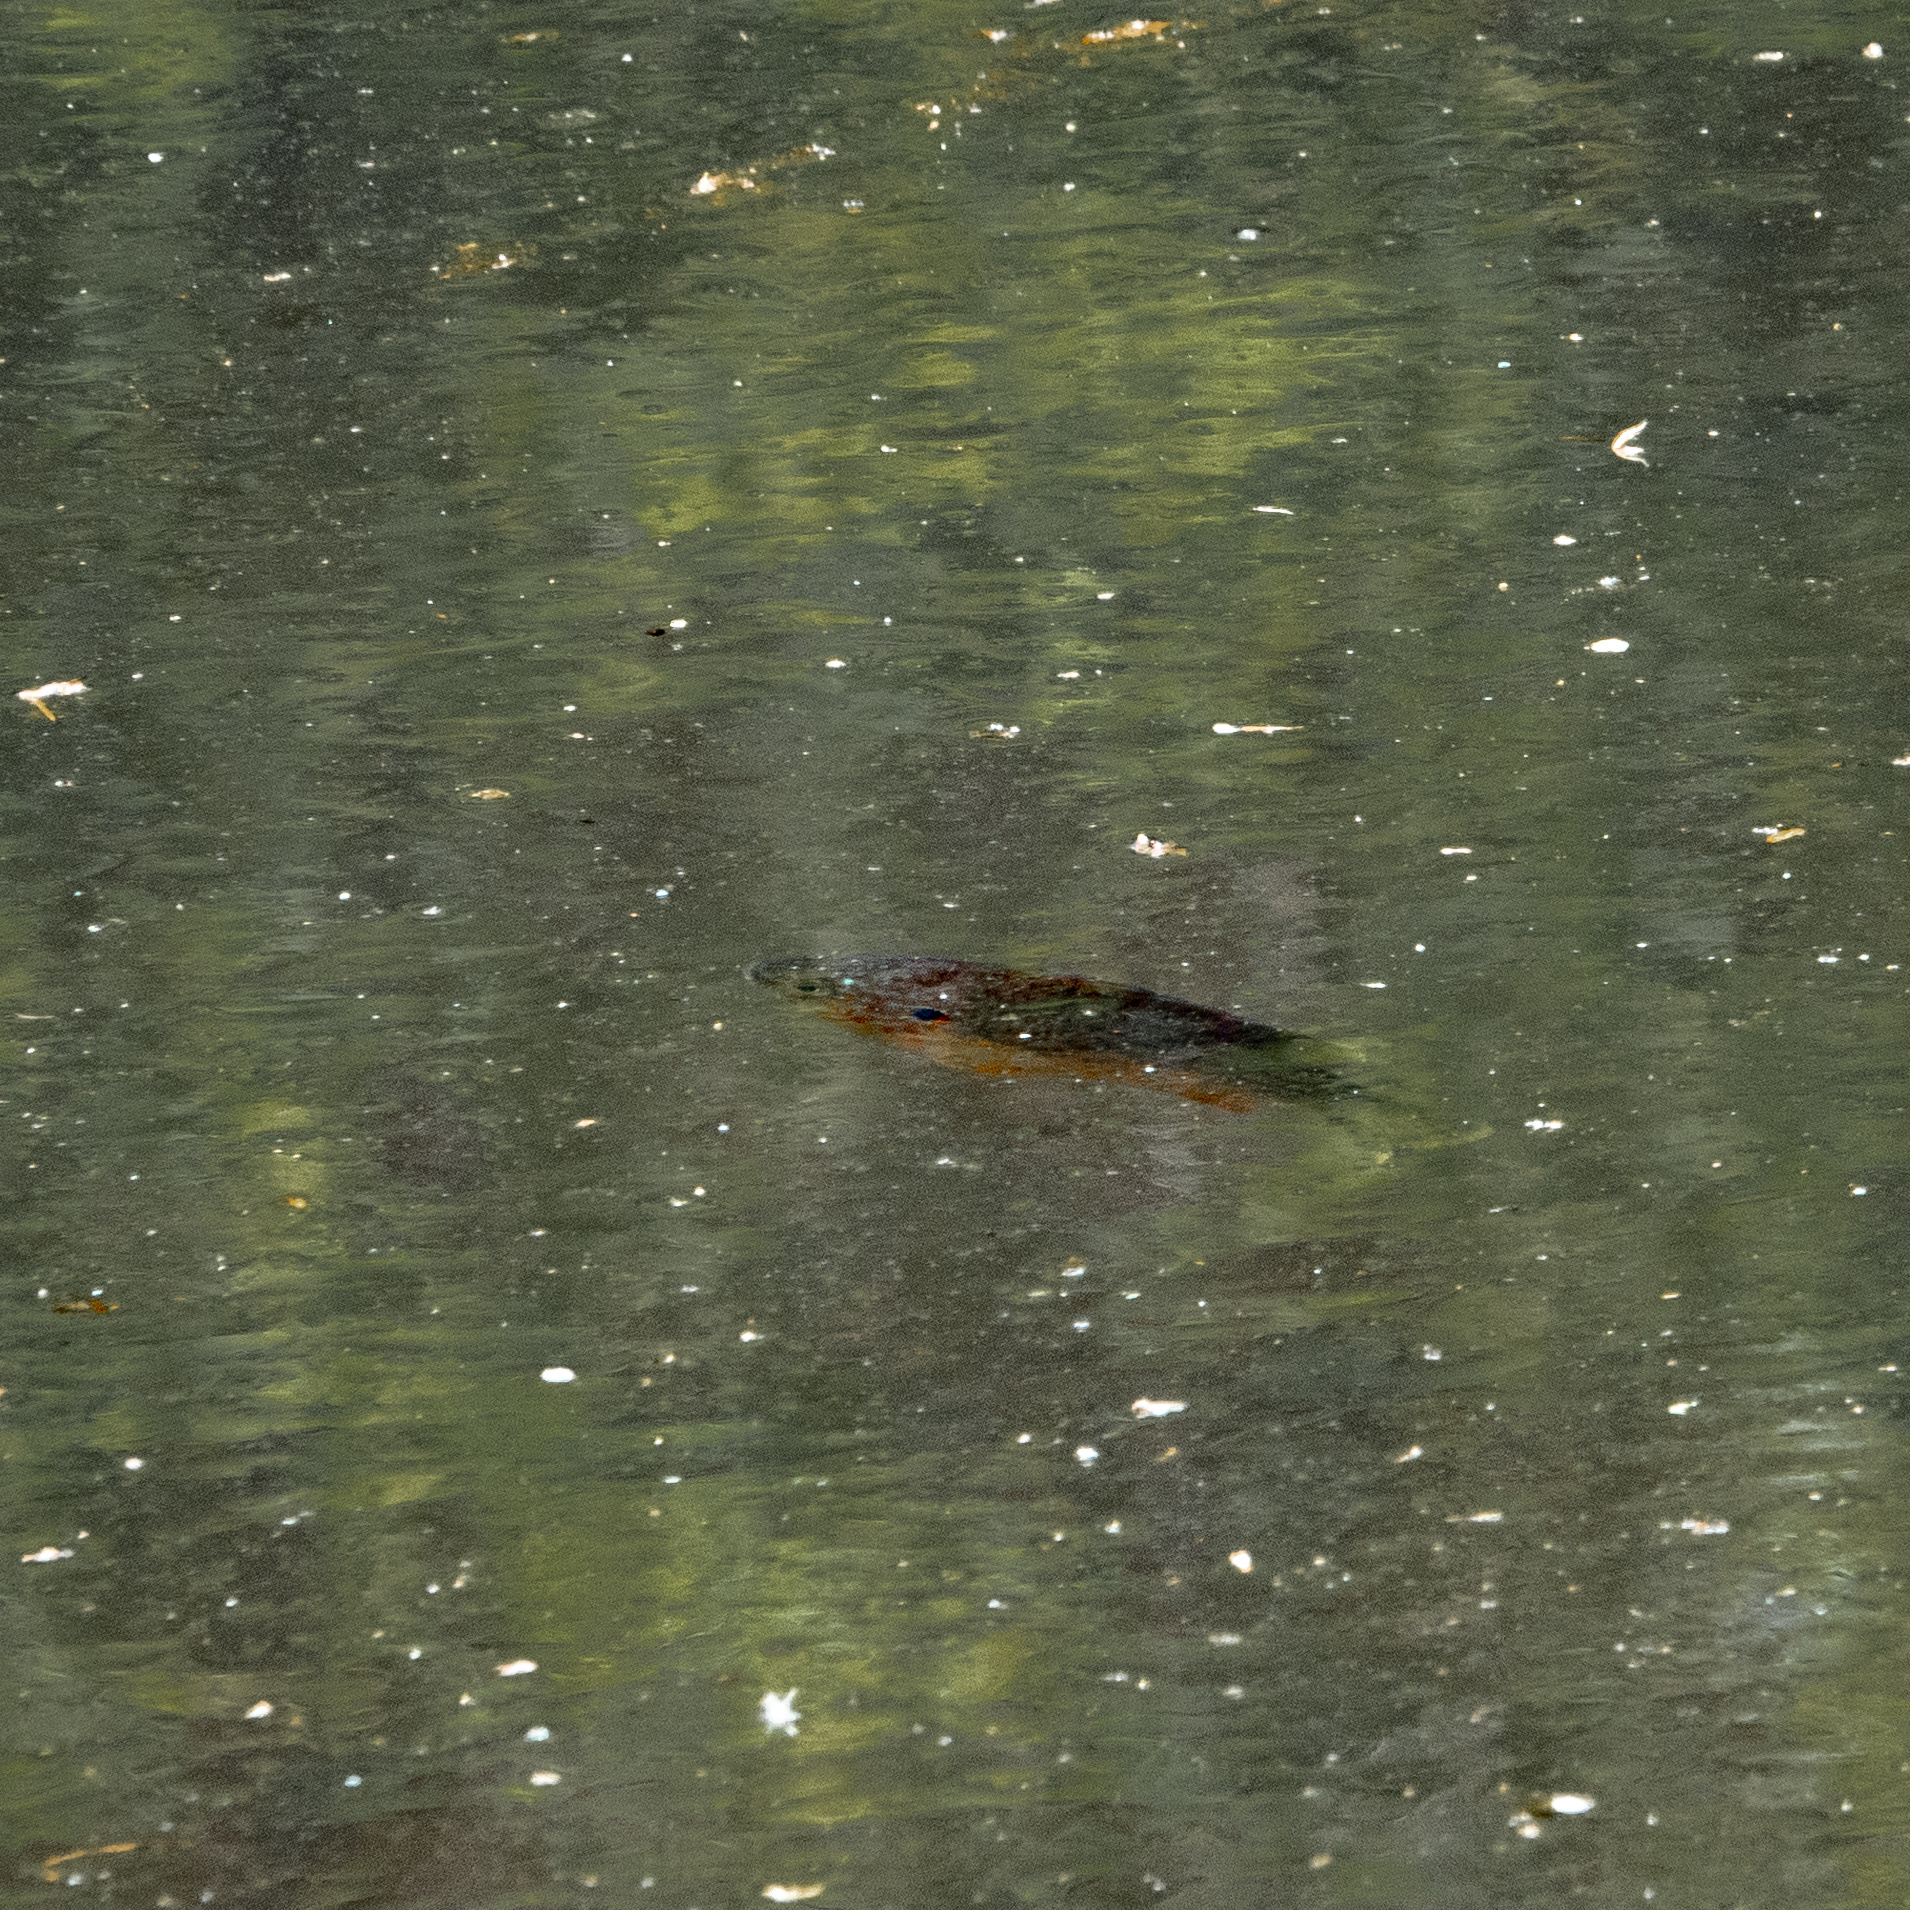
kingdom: Animalia
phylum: Chordata
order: Perciformes
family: Centrarchidae
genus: Lepomis
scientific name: Lepomis gibbosus
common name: Pumpkinseed
